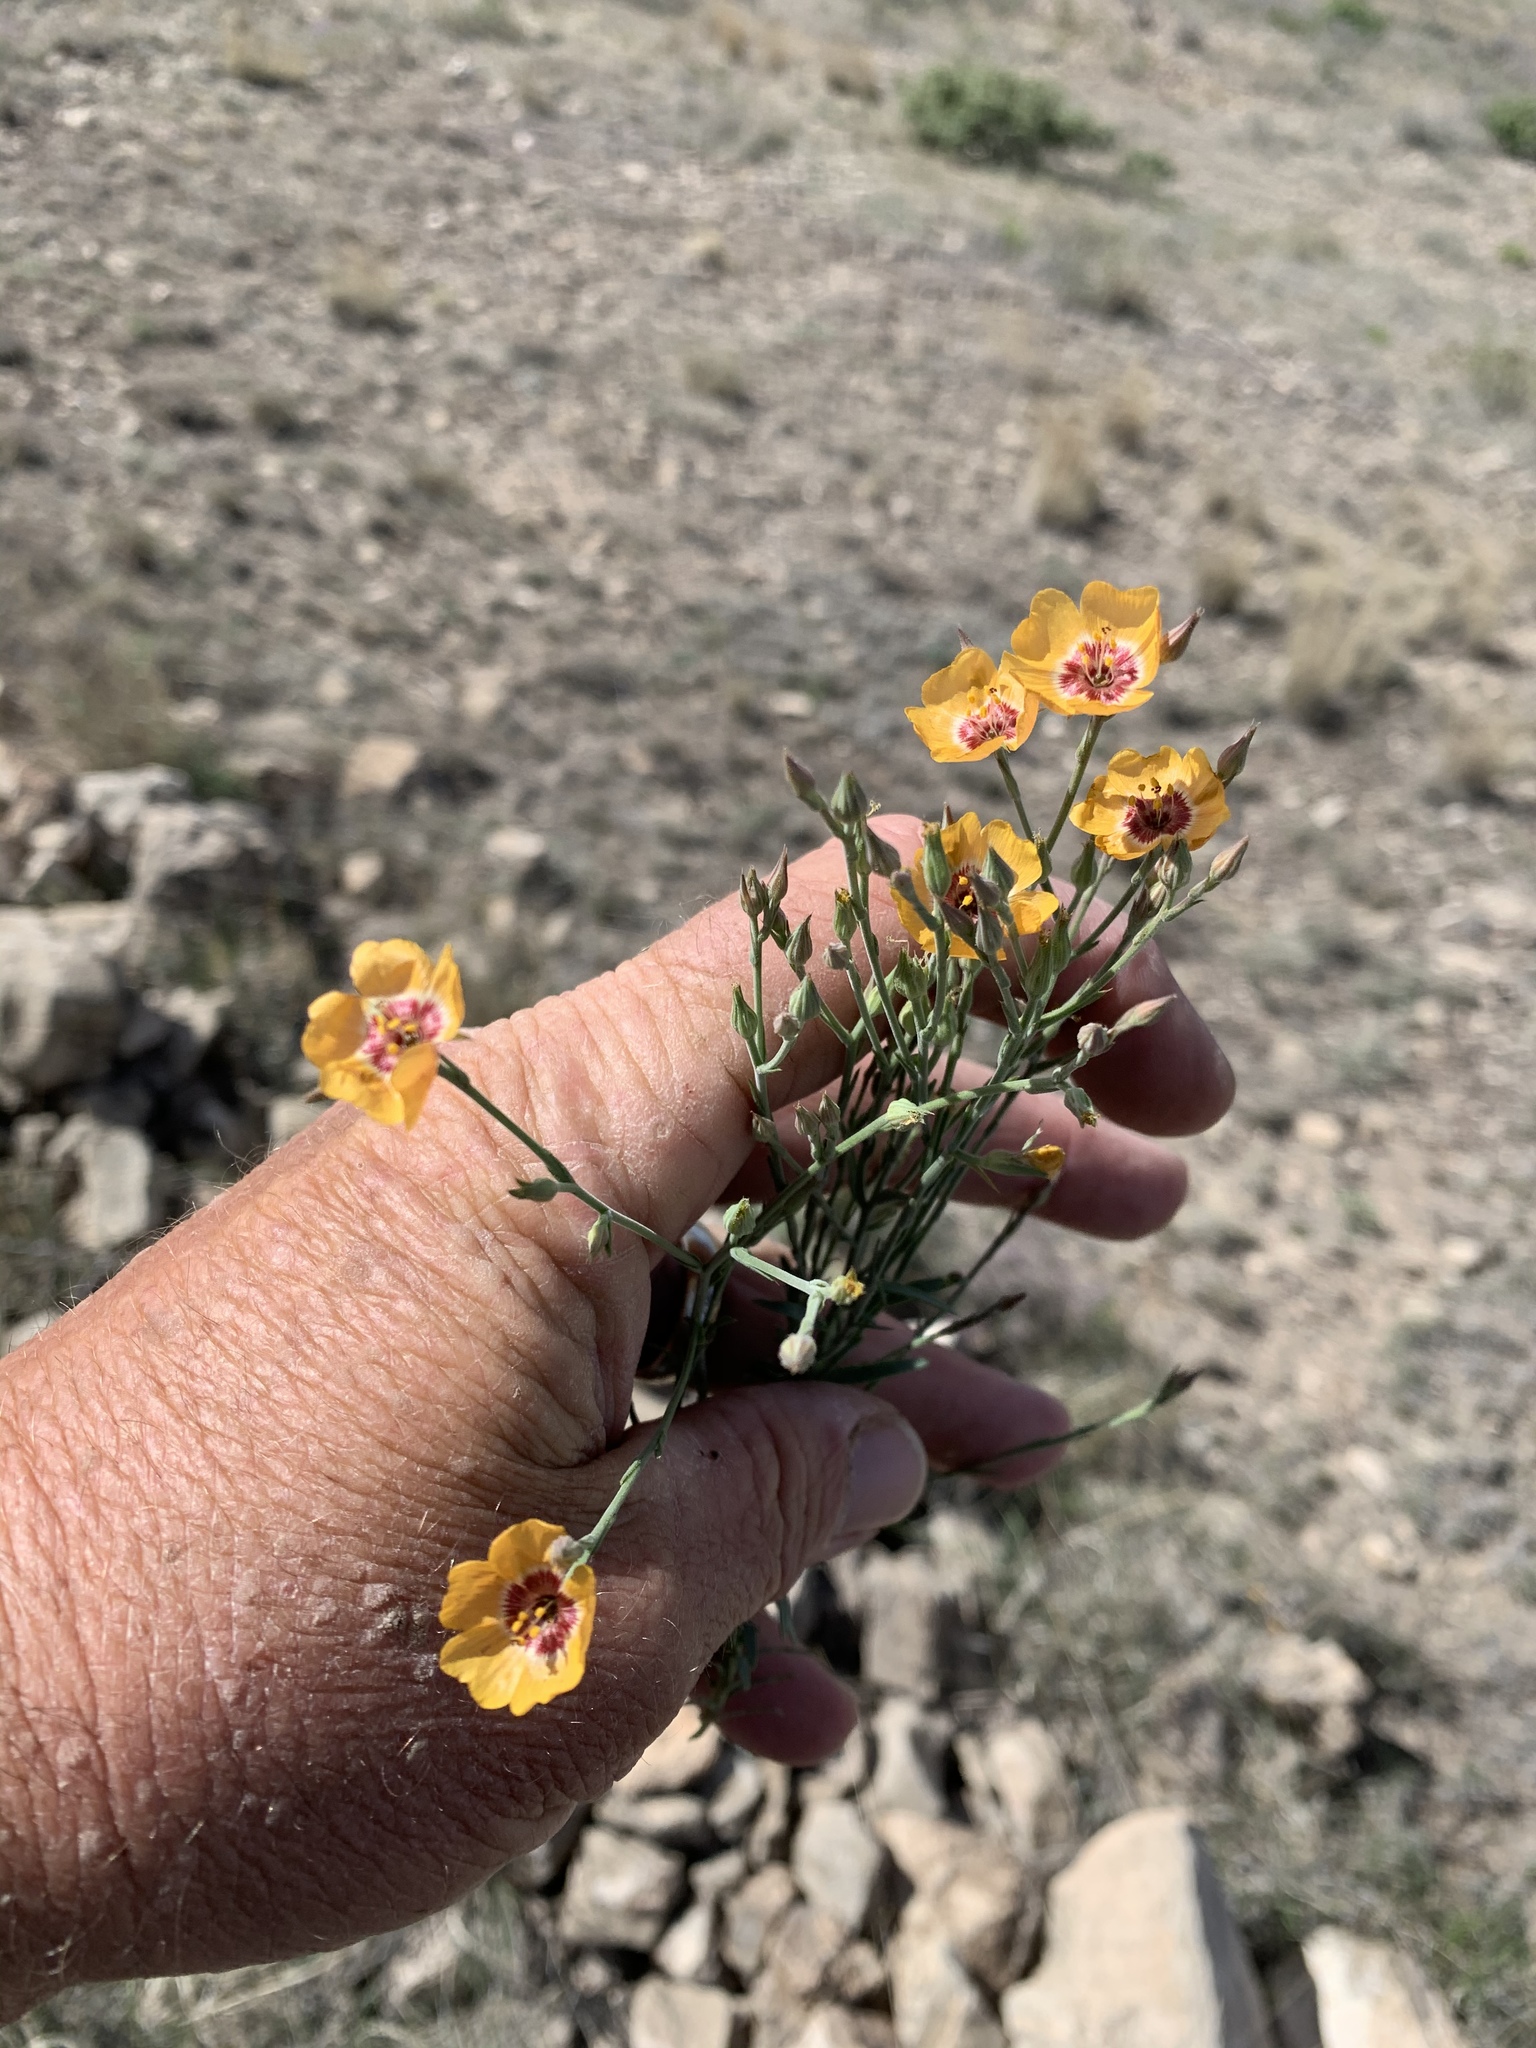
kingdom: Plantae
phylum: Tracheophyta
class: Magnoliopsida
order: Malpighiales
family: Linaceae
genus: Linum
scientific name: Linum puberulum
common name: Plains flax
